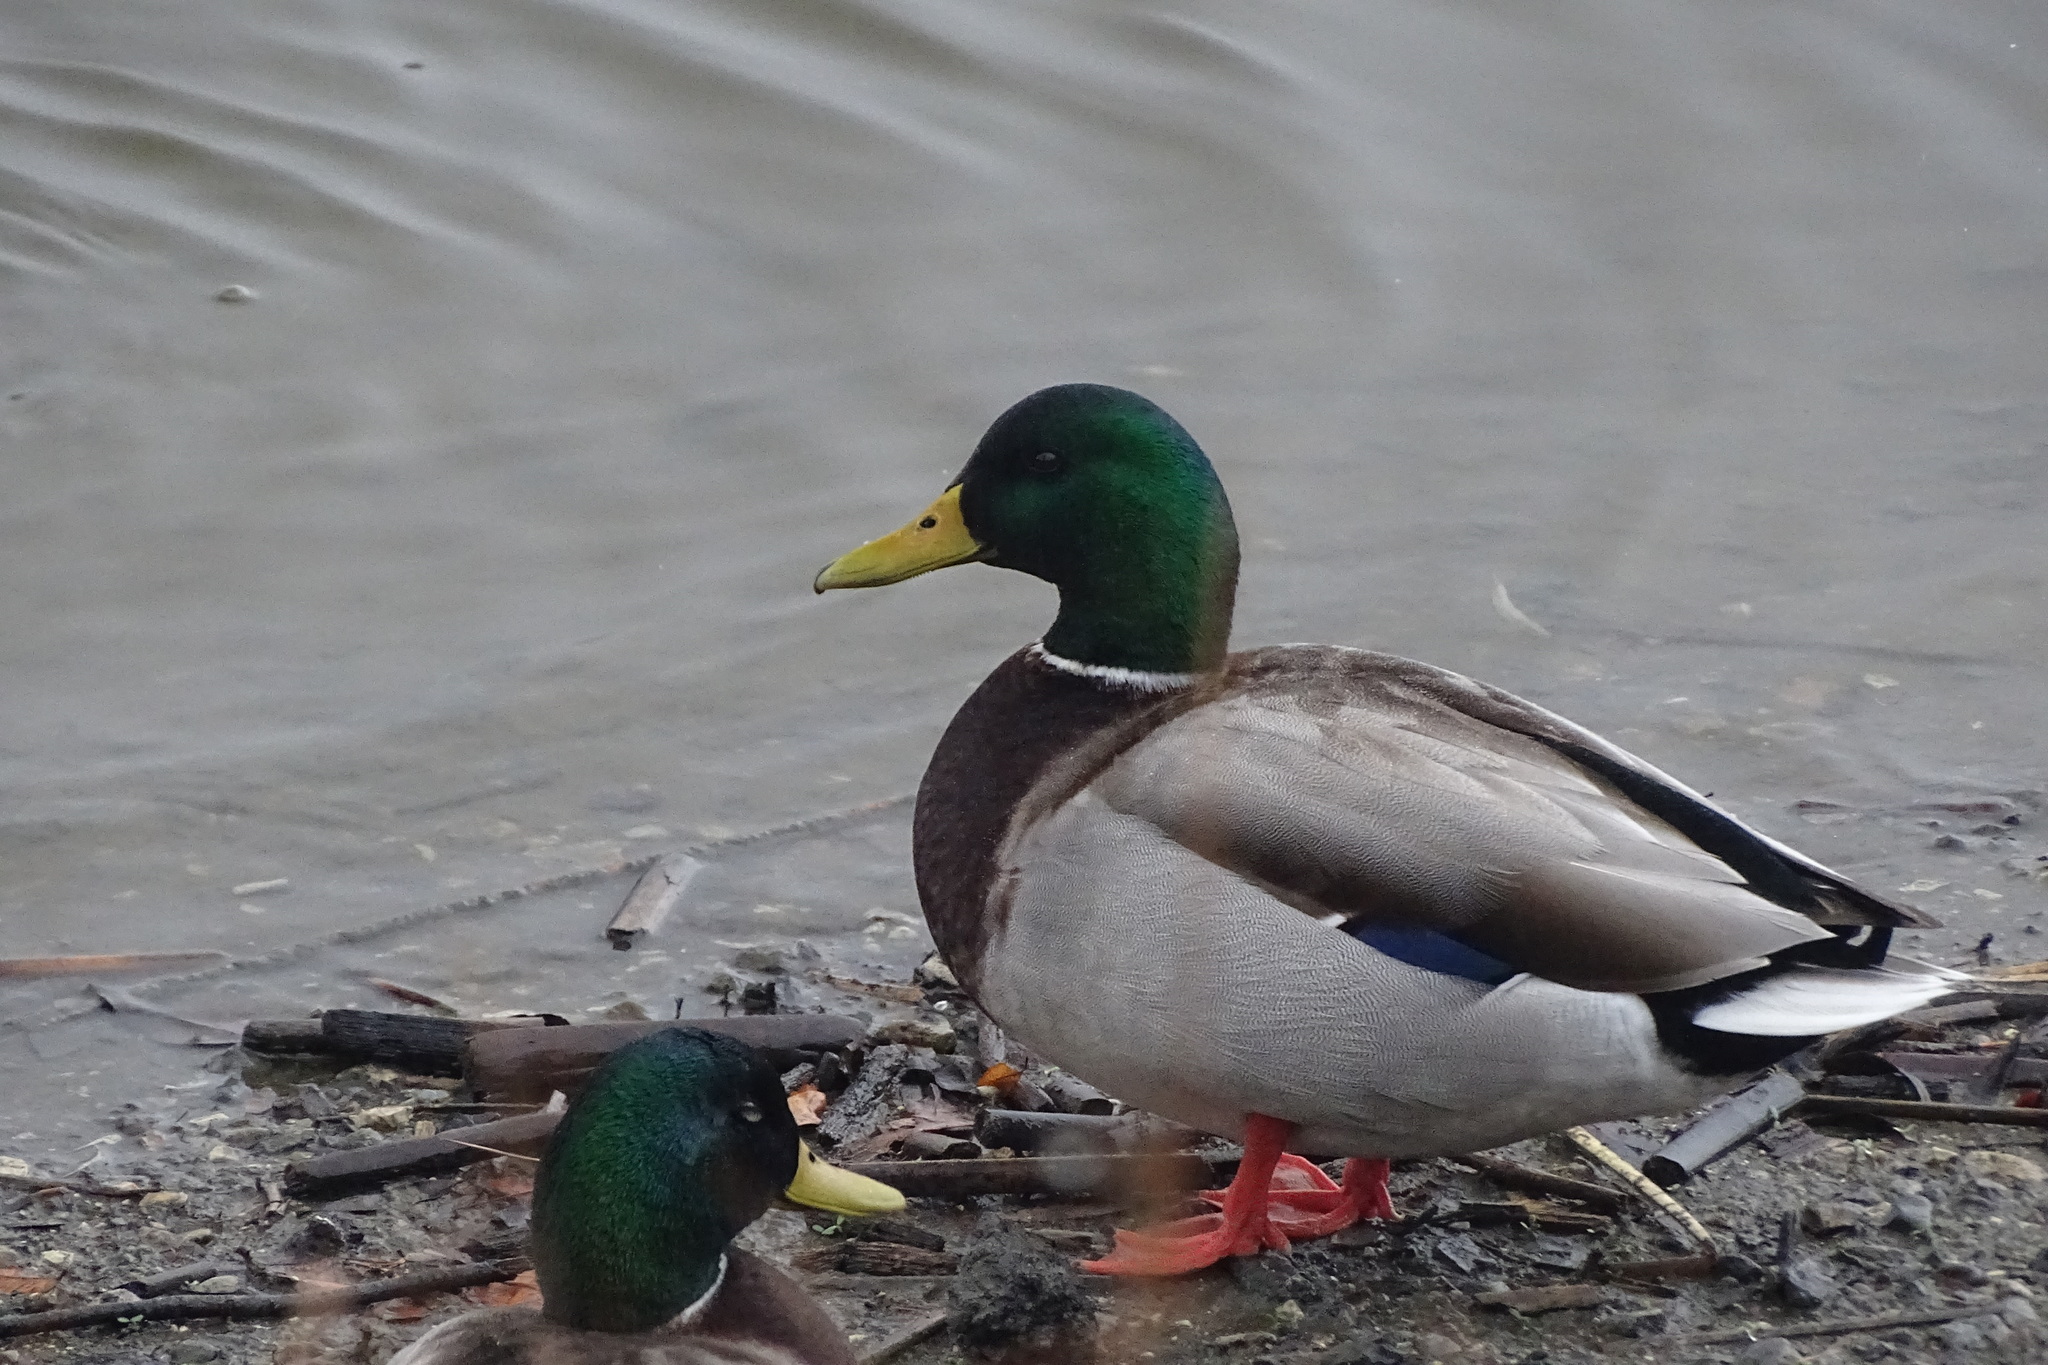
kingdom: Animalia
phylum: Chordata
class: Aves
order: Anseriformes
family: Anatidae
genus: Anas
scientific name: Anas platyrhynchos
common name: Mallard
